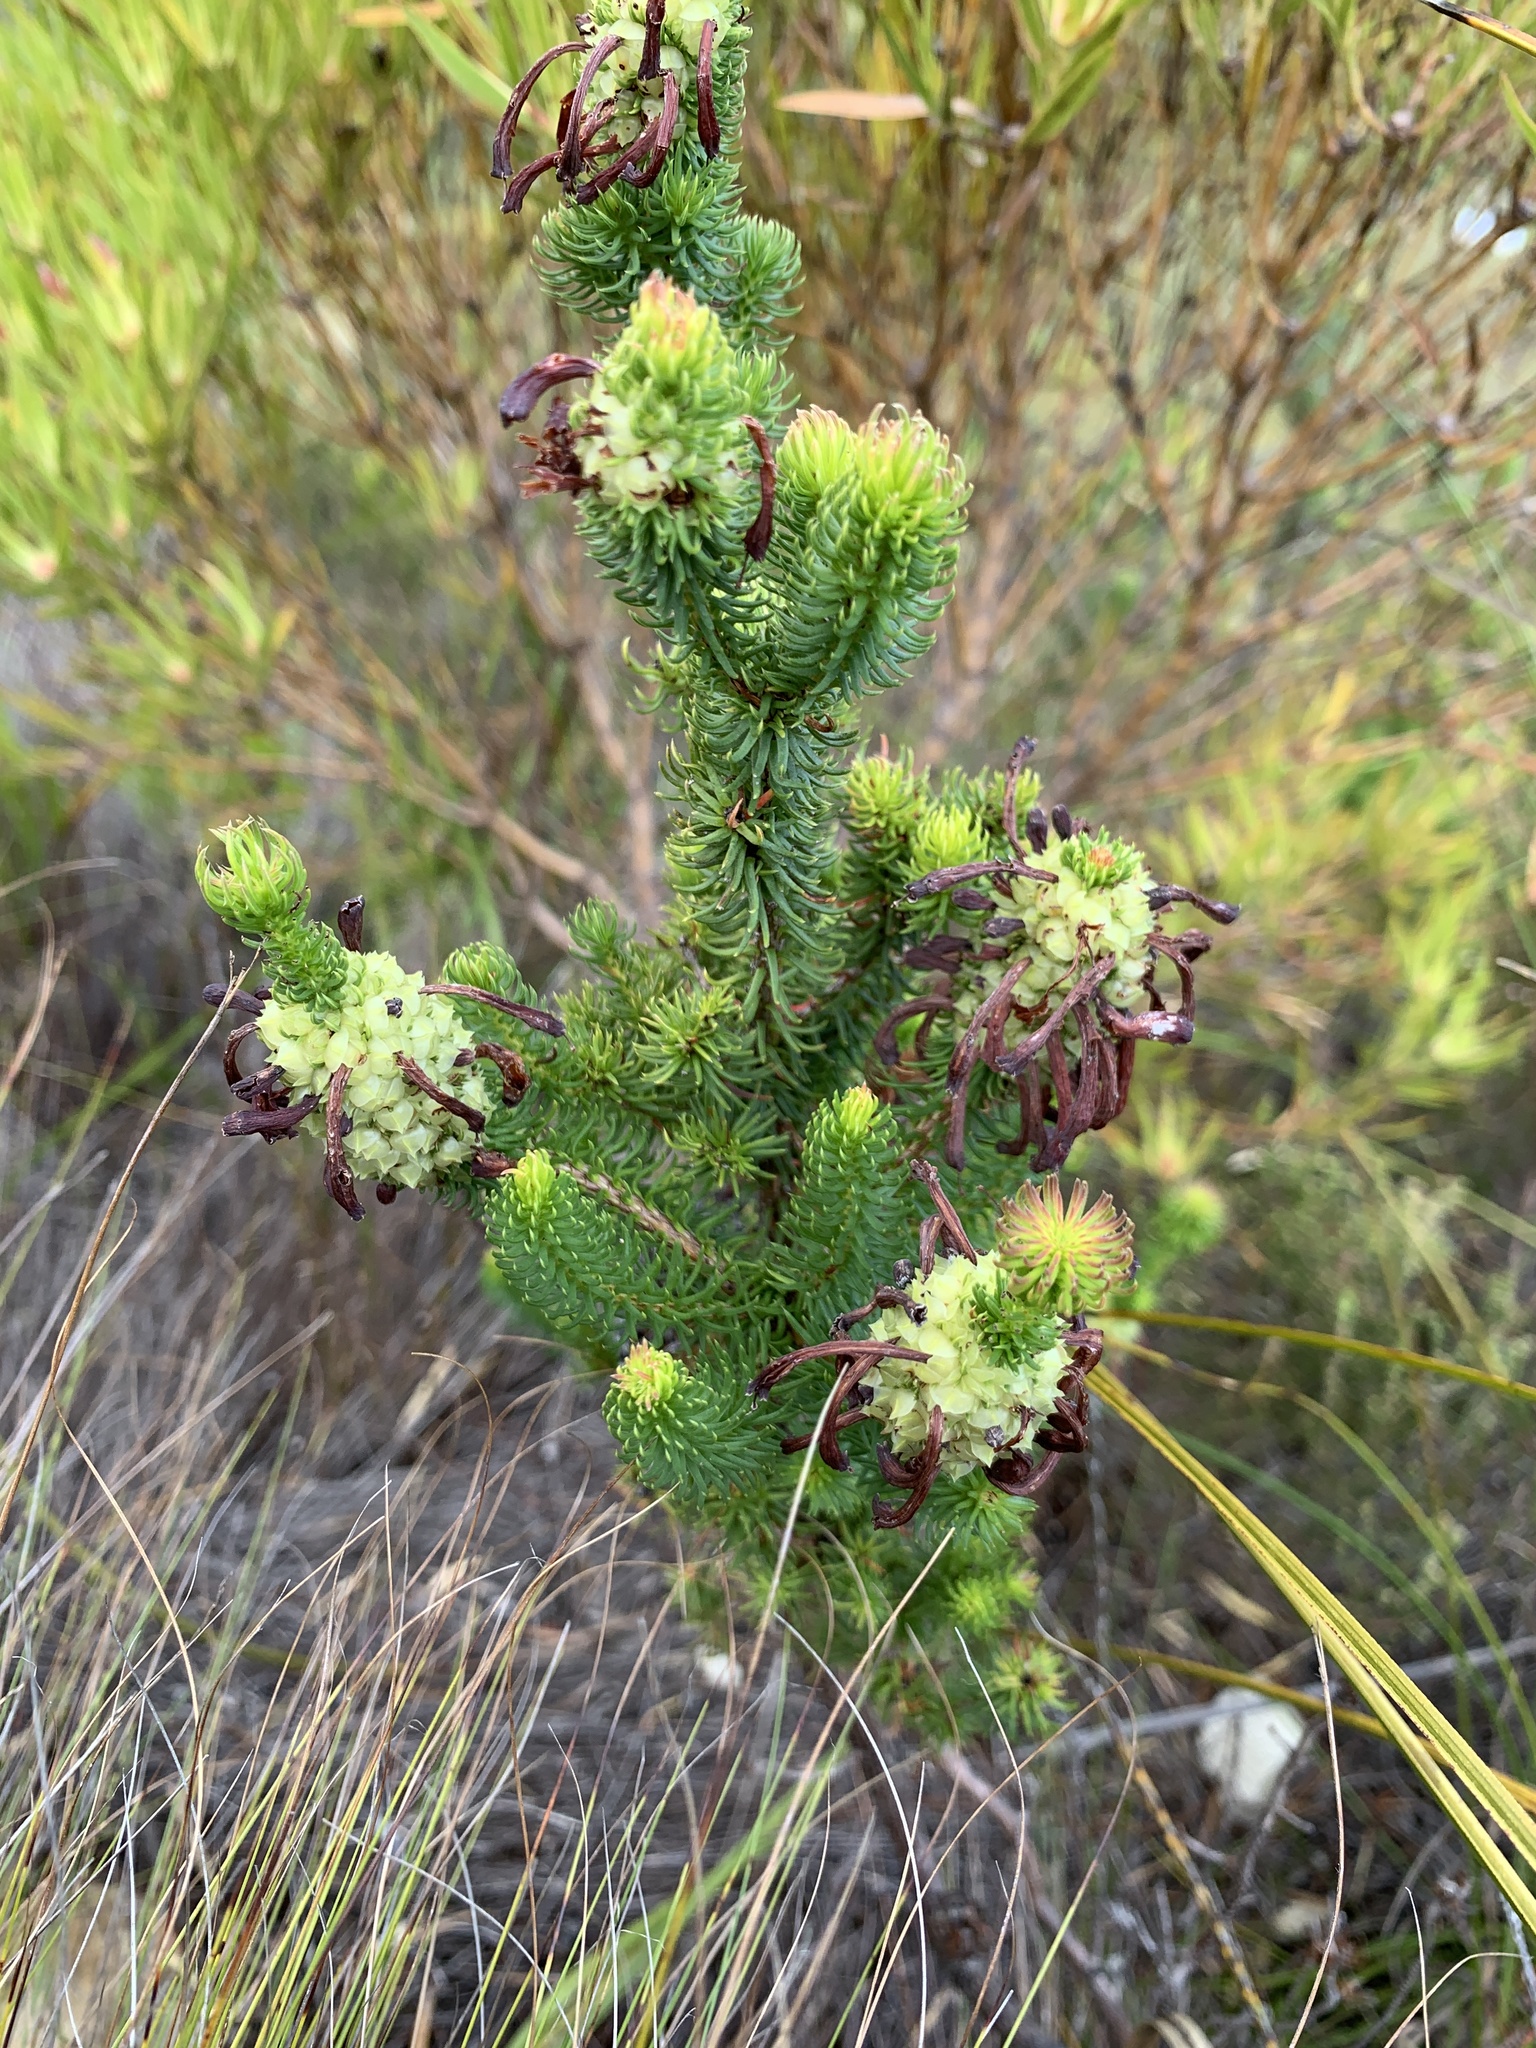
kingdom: Plantae
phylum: Tracheophyta
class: Magnoliopsida
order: Ericales
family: Ericaceae
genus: Erica
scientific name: Erica sessiliflora
